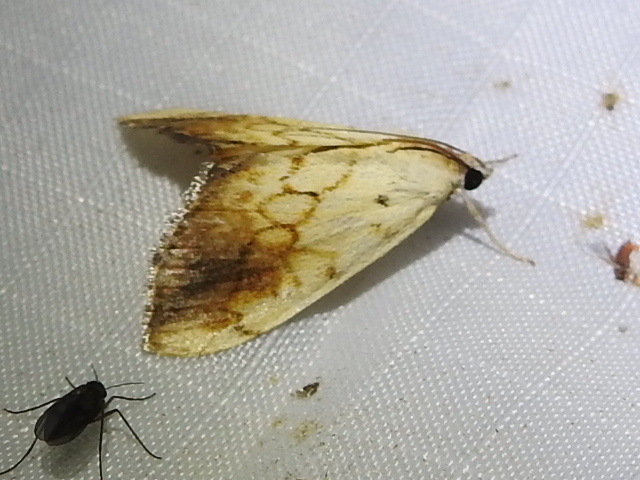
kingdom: Animalia
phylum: Arthropoda
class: Insecta
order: Lepidoptera
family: Crambidae
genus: Evergestis
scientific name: Evergestis extimalis
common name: Marbled yellow pearl
